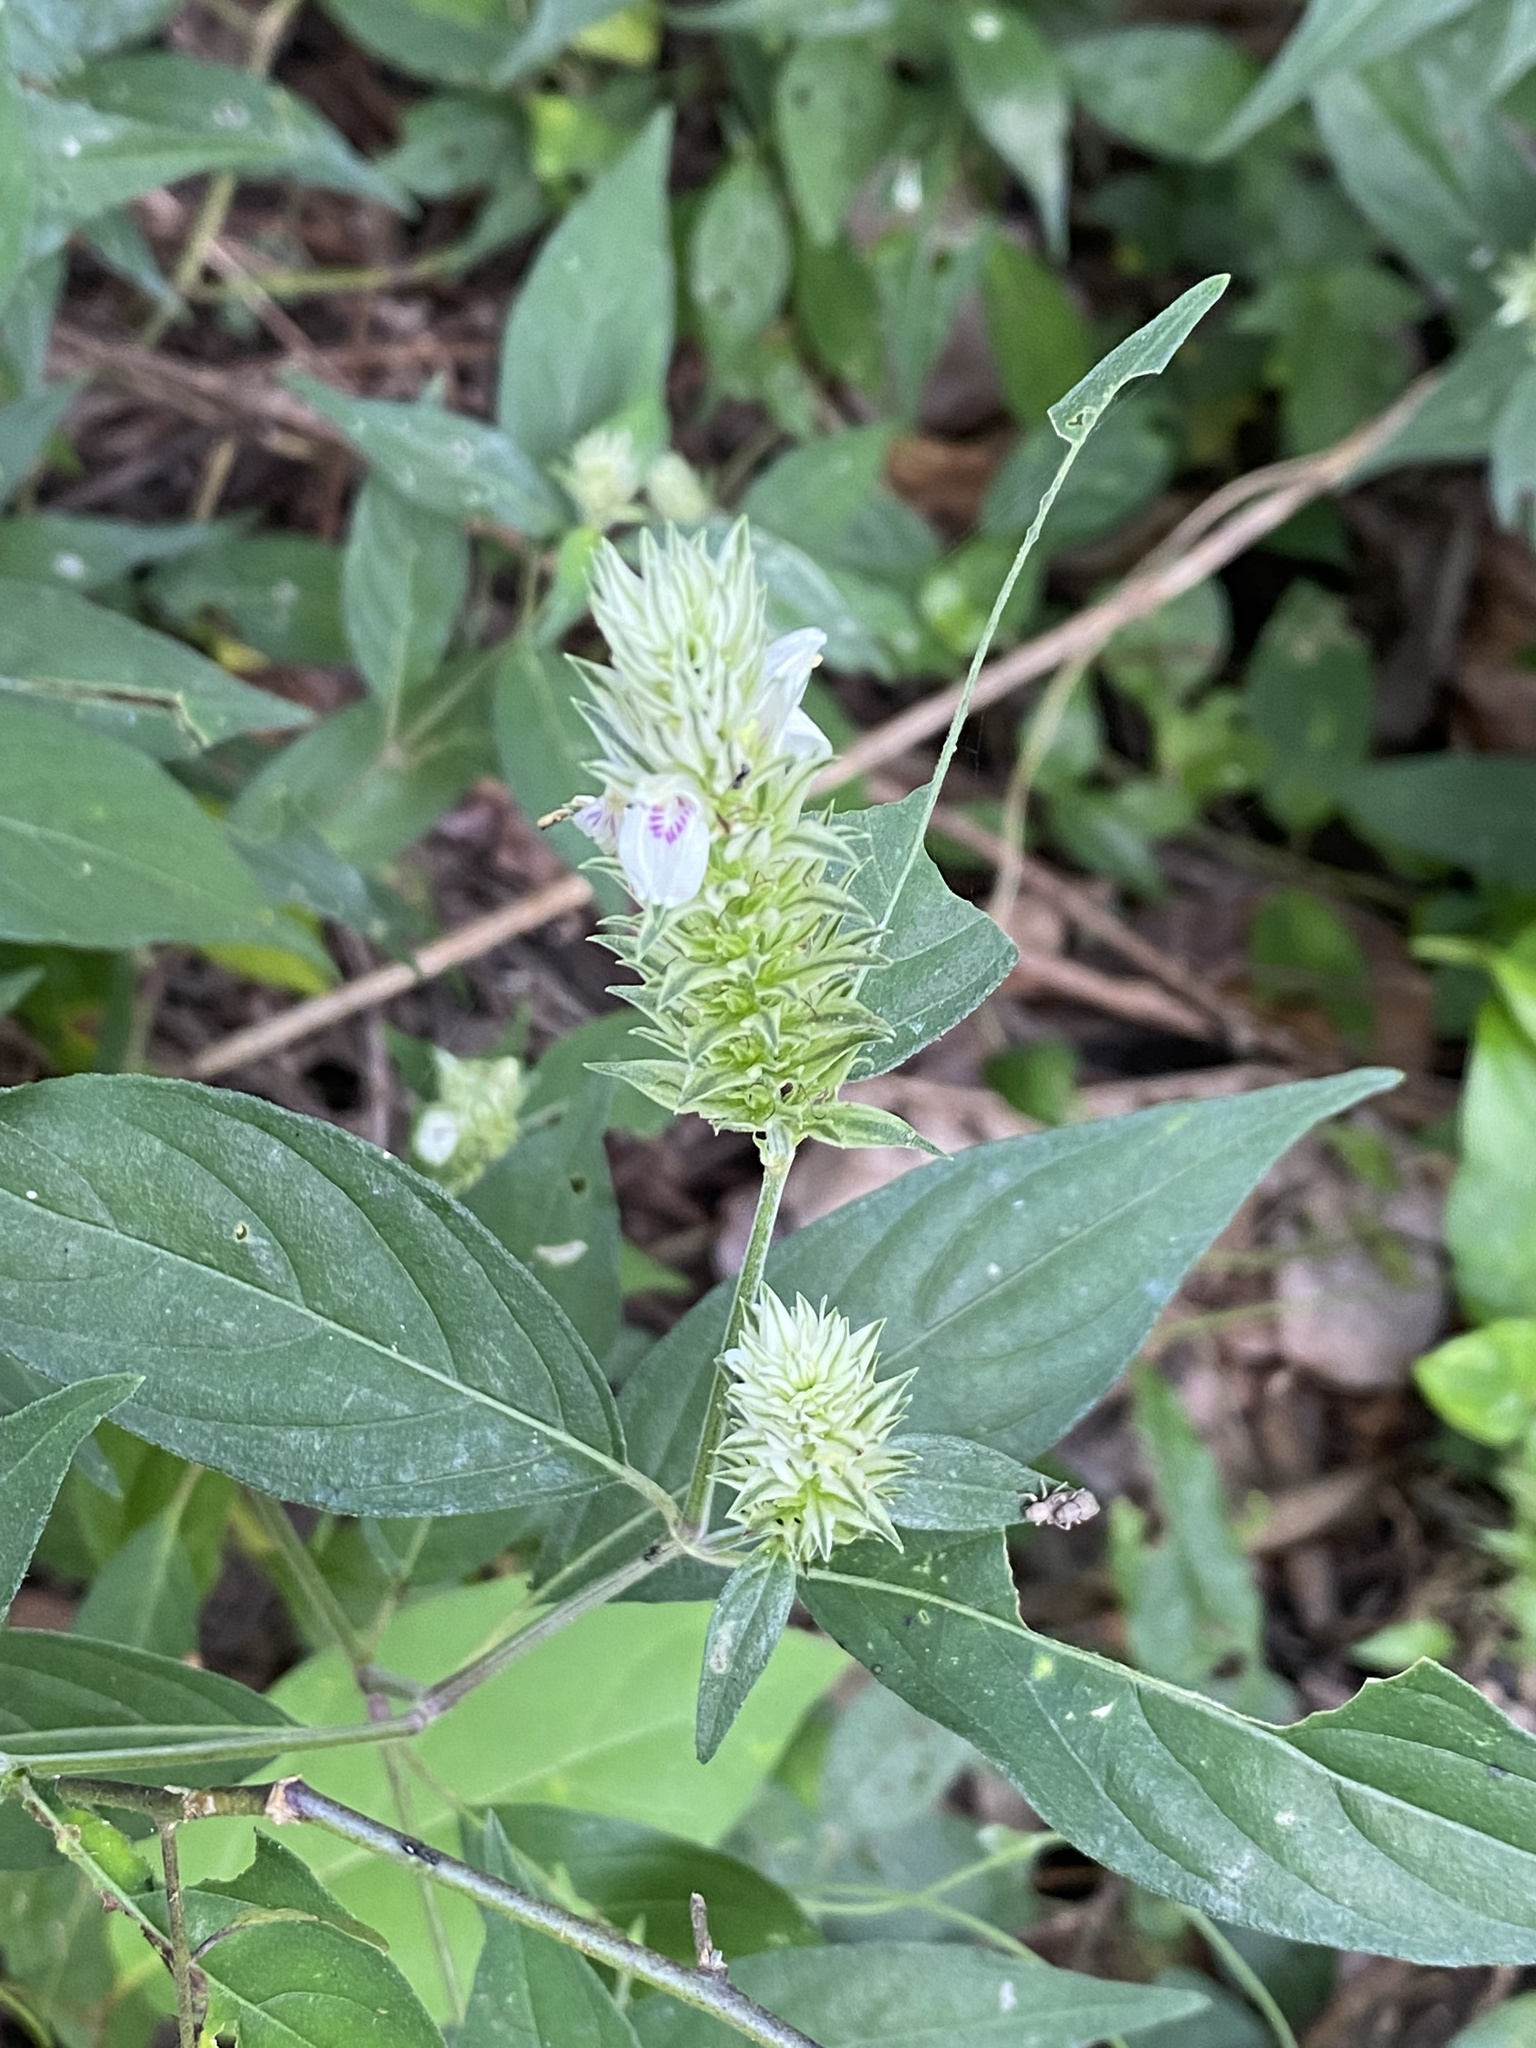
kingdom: Plantae
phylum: Tracheophyta
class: Magnoliopsida
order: Lamiales
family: Acanthaceae
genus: Pogonospermum
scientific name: Pogonospermum
